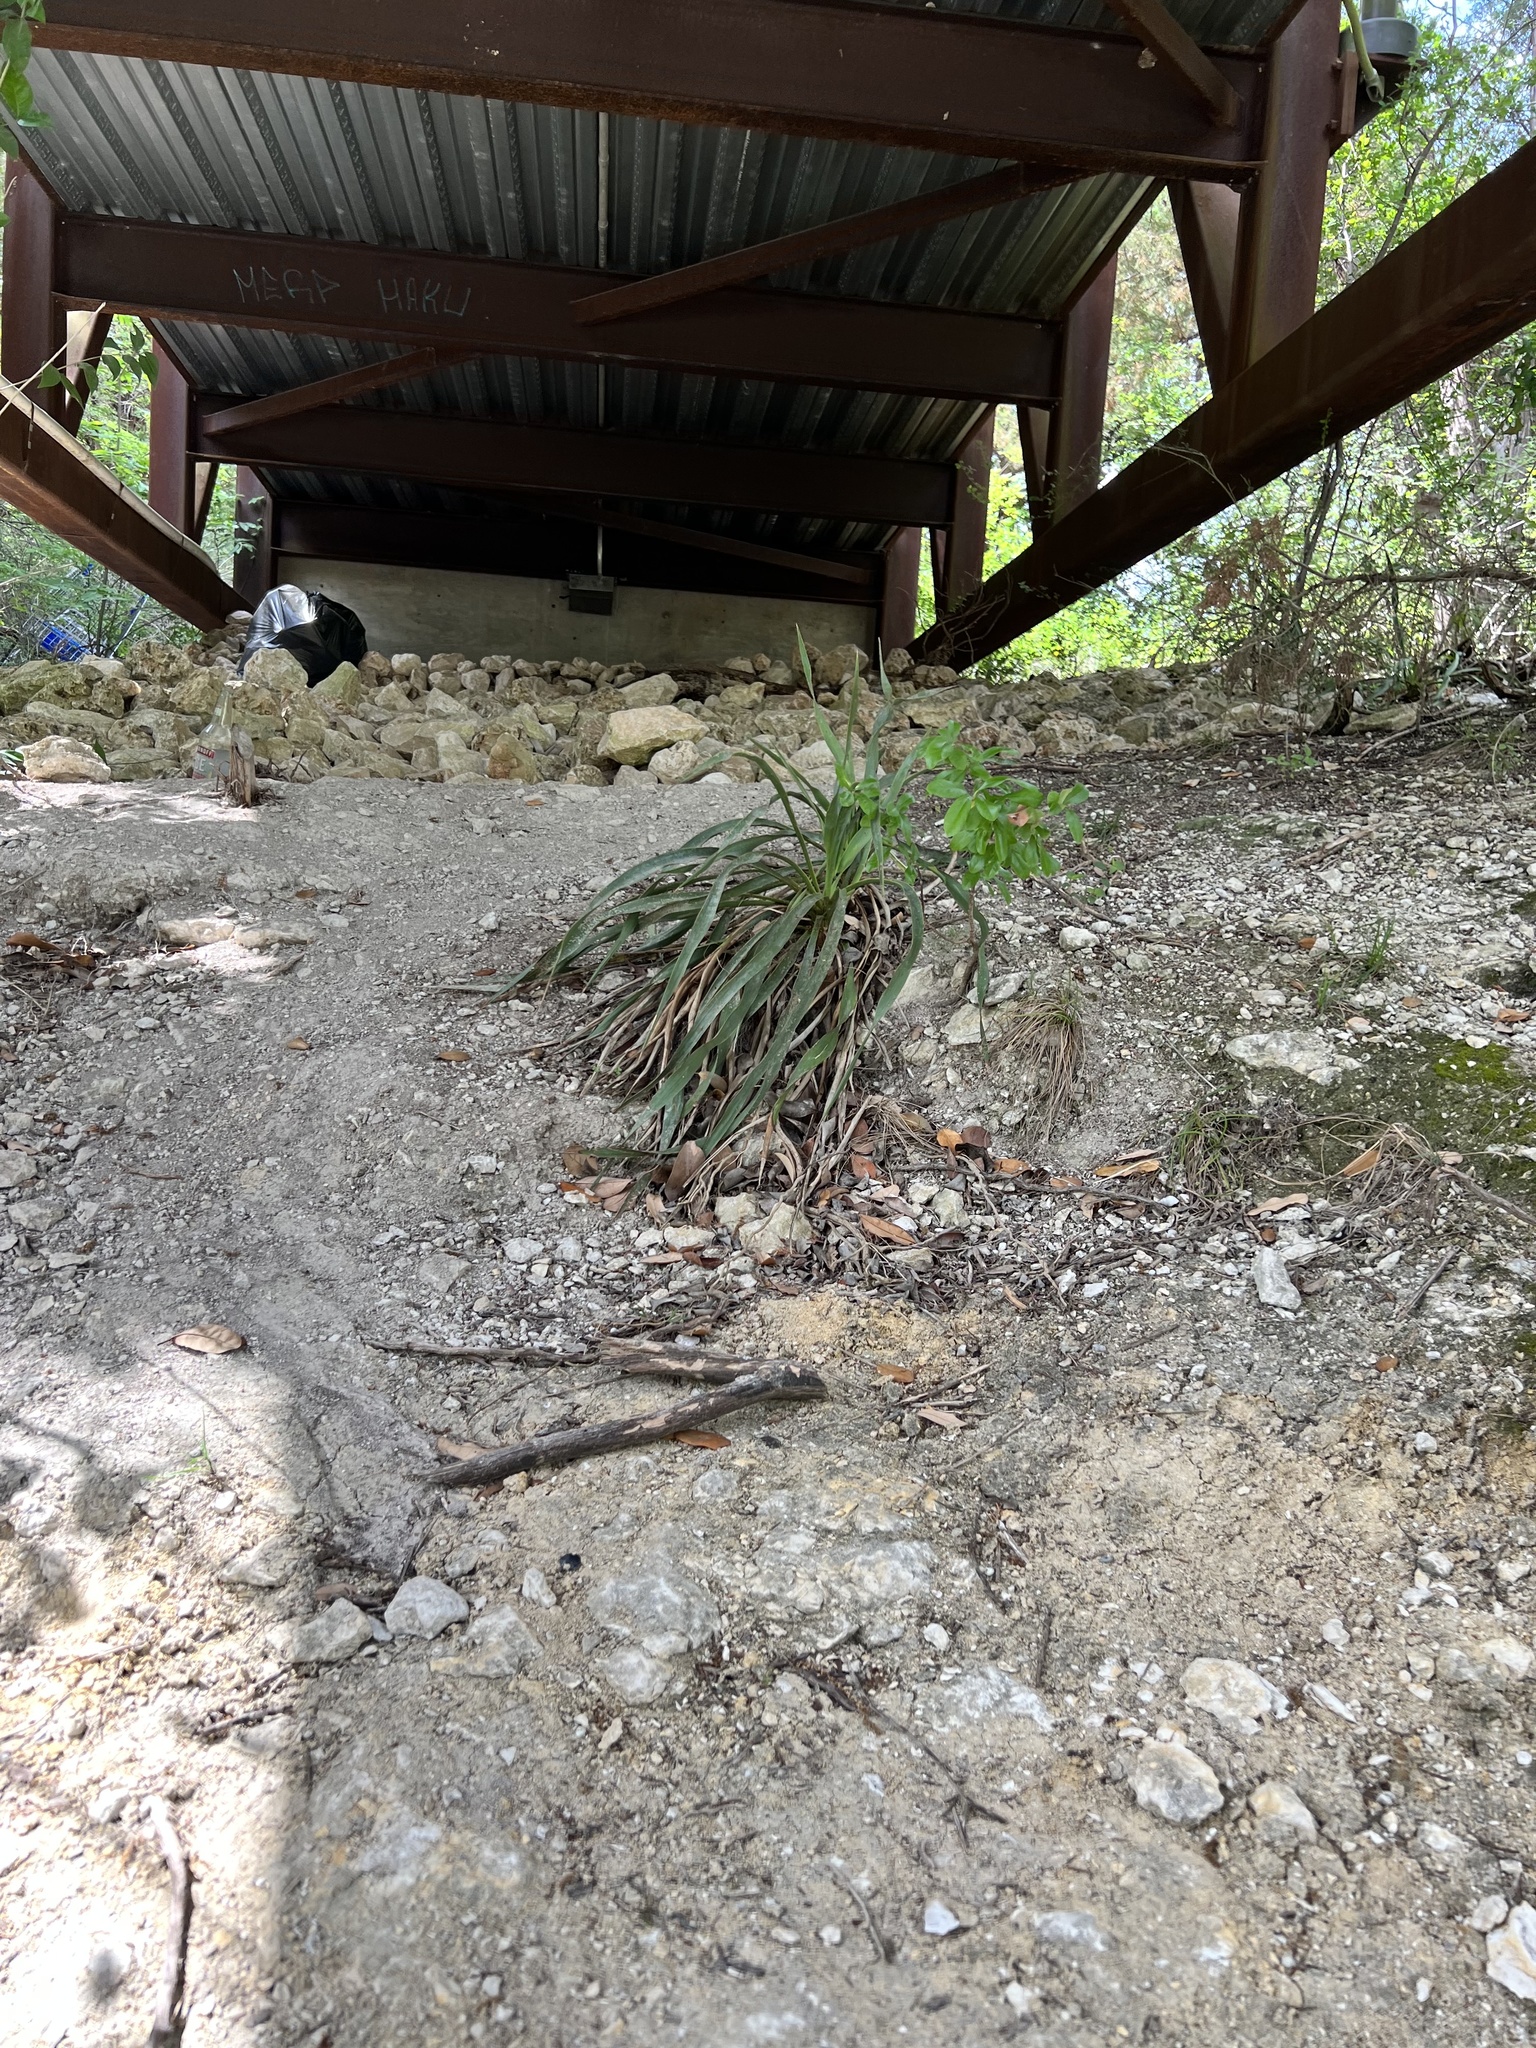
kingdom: Plantae
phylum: Tracheophyta
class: Liliopsida
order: Asparagales
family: Asparagaceae
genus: Yucca
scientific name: Yucca rupicola
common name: Twisted-leaf spanish-dagger
